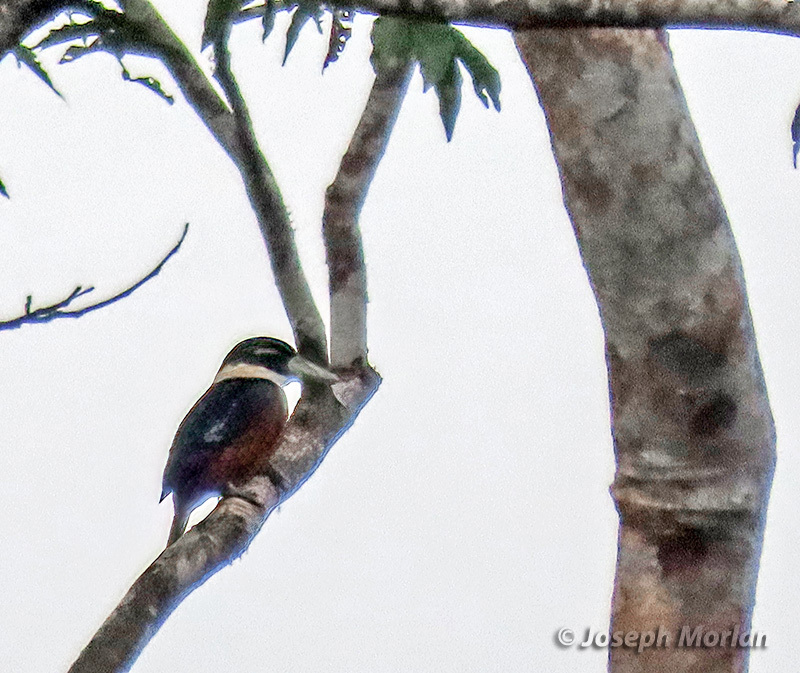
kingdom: Animalia
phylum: Chordata
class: Aves
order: Coraciiformes
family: Alcedinidae
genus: Dacelo
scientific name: Dacelo gaudichaud
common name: Rufous-bellied kookaburra
